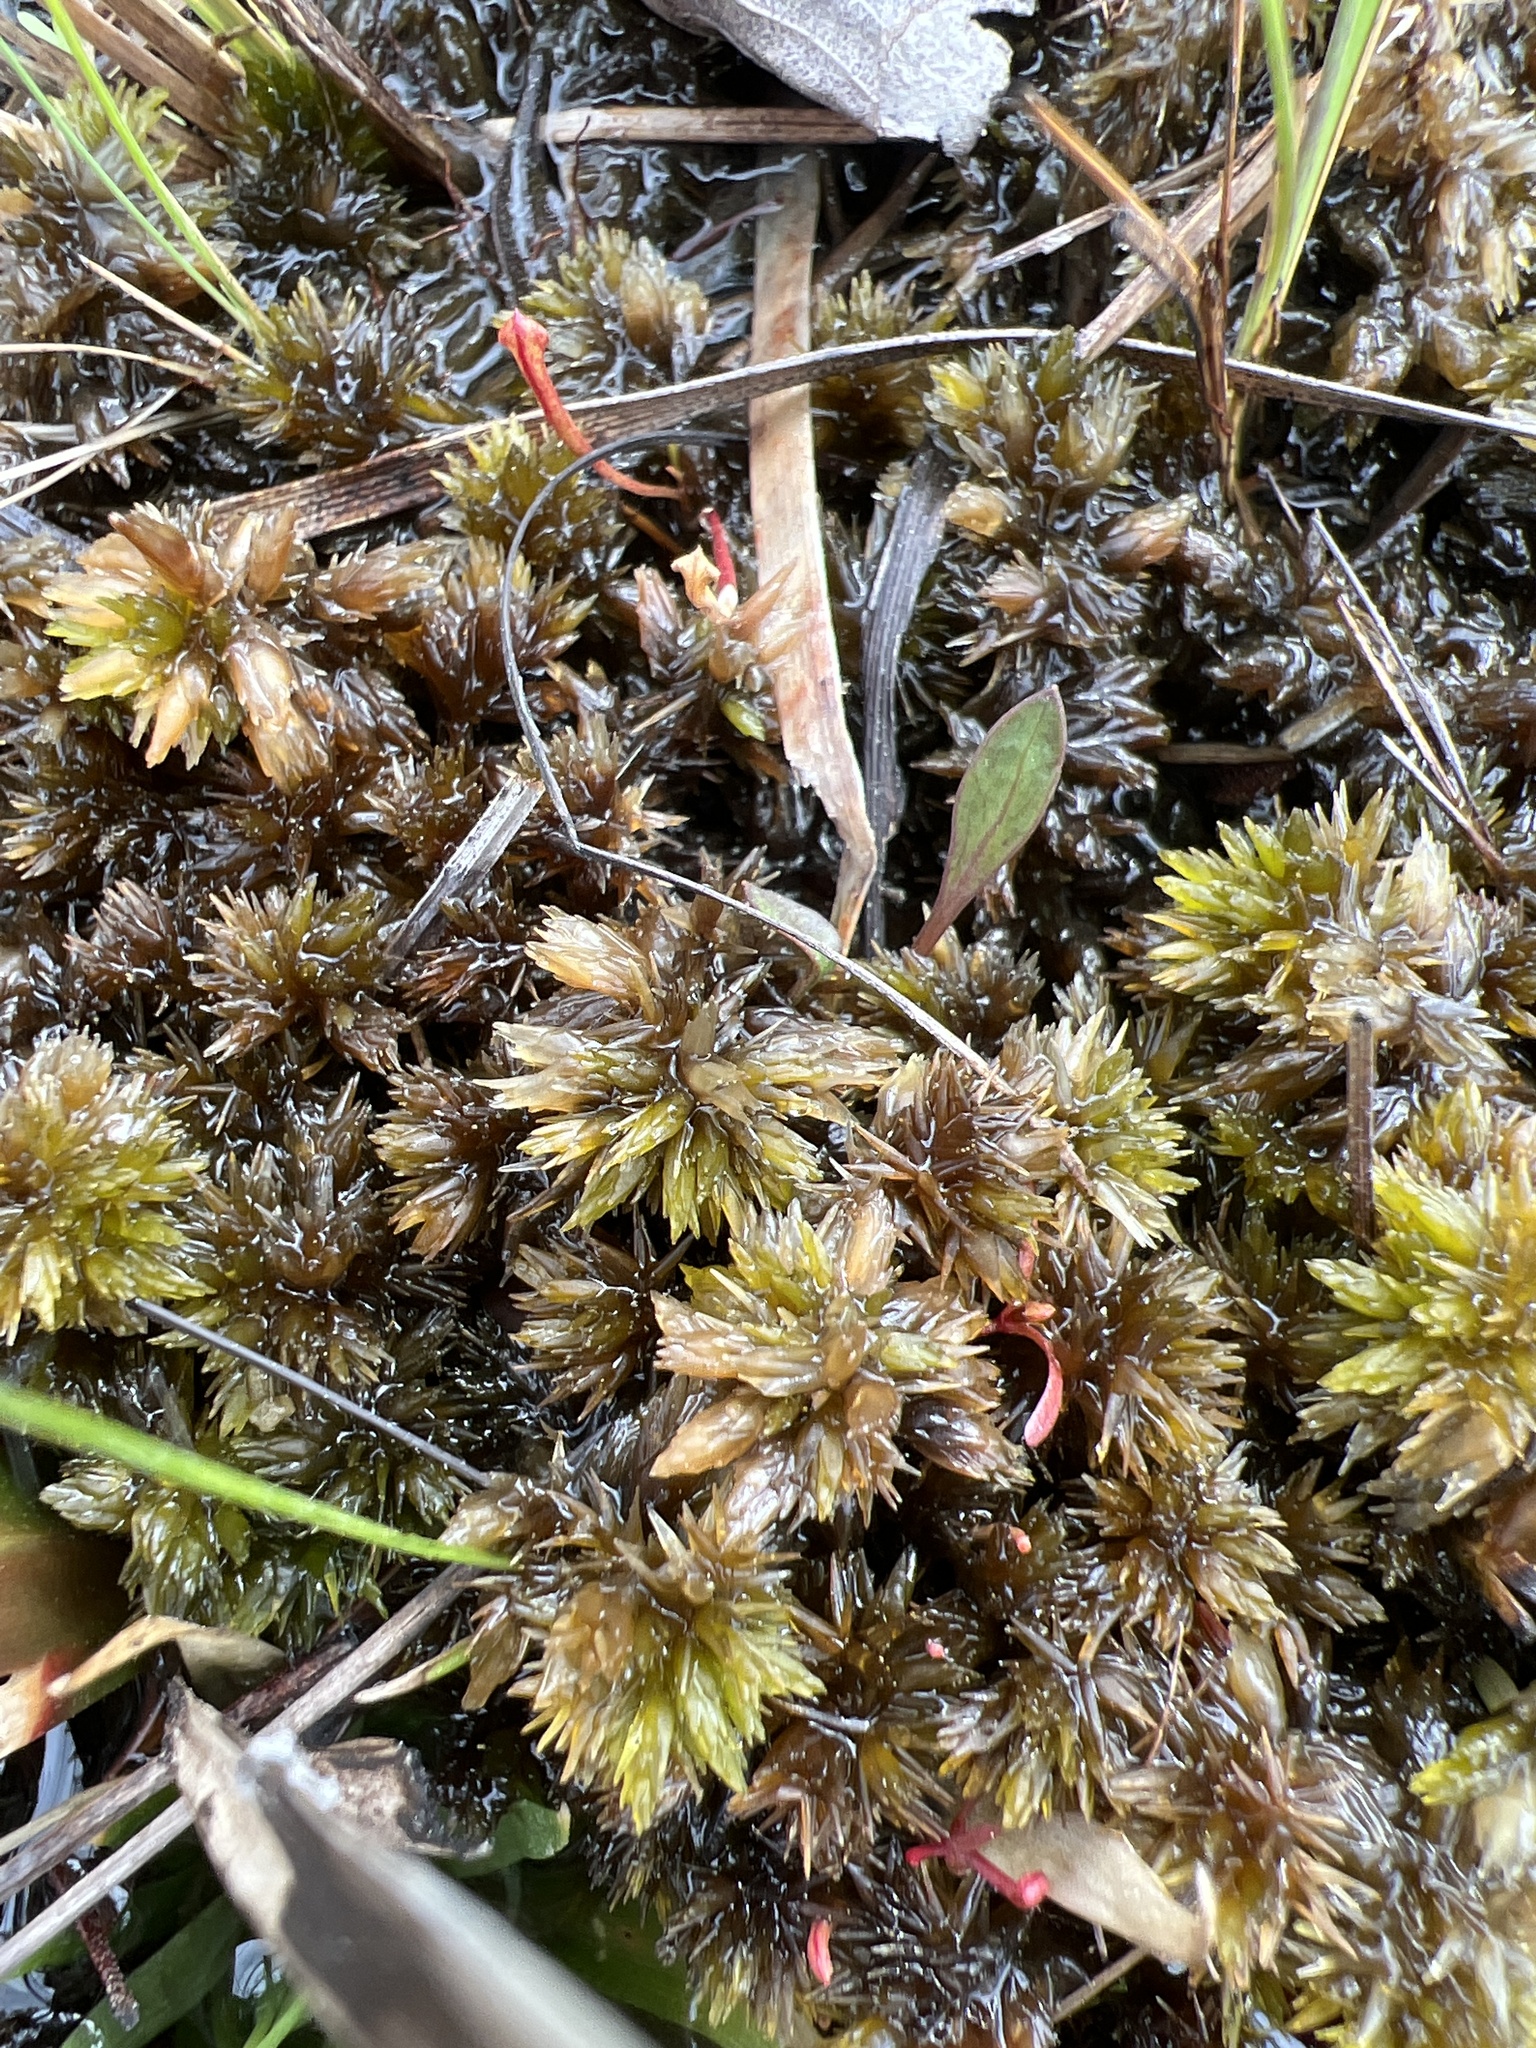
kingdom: Plantae
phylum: Bryophyta
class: Sphagnopsida
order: Sphagnales
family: Sphagnaceae
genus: Sphagnum
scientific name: Sphagnum carolinianum
